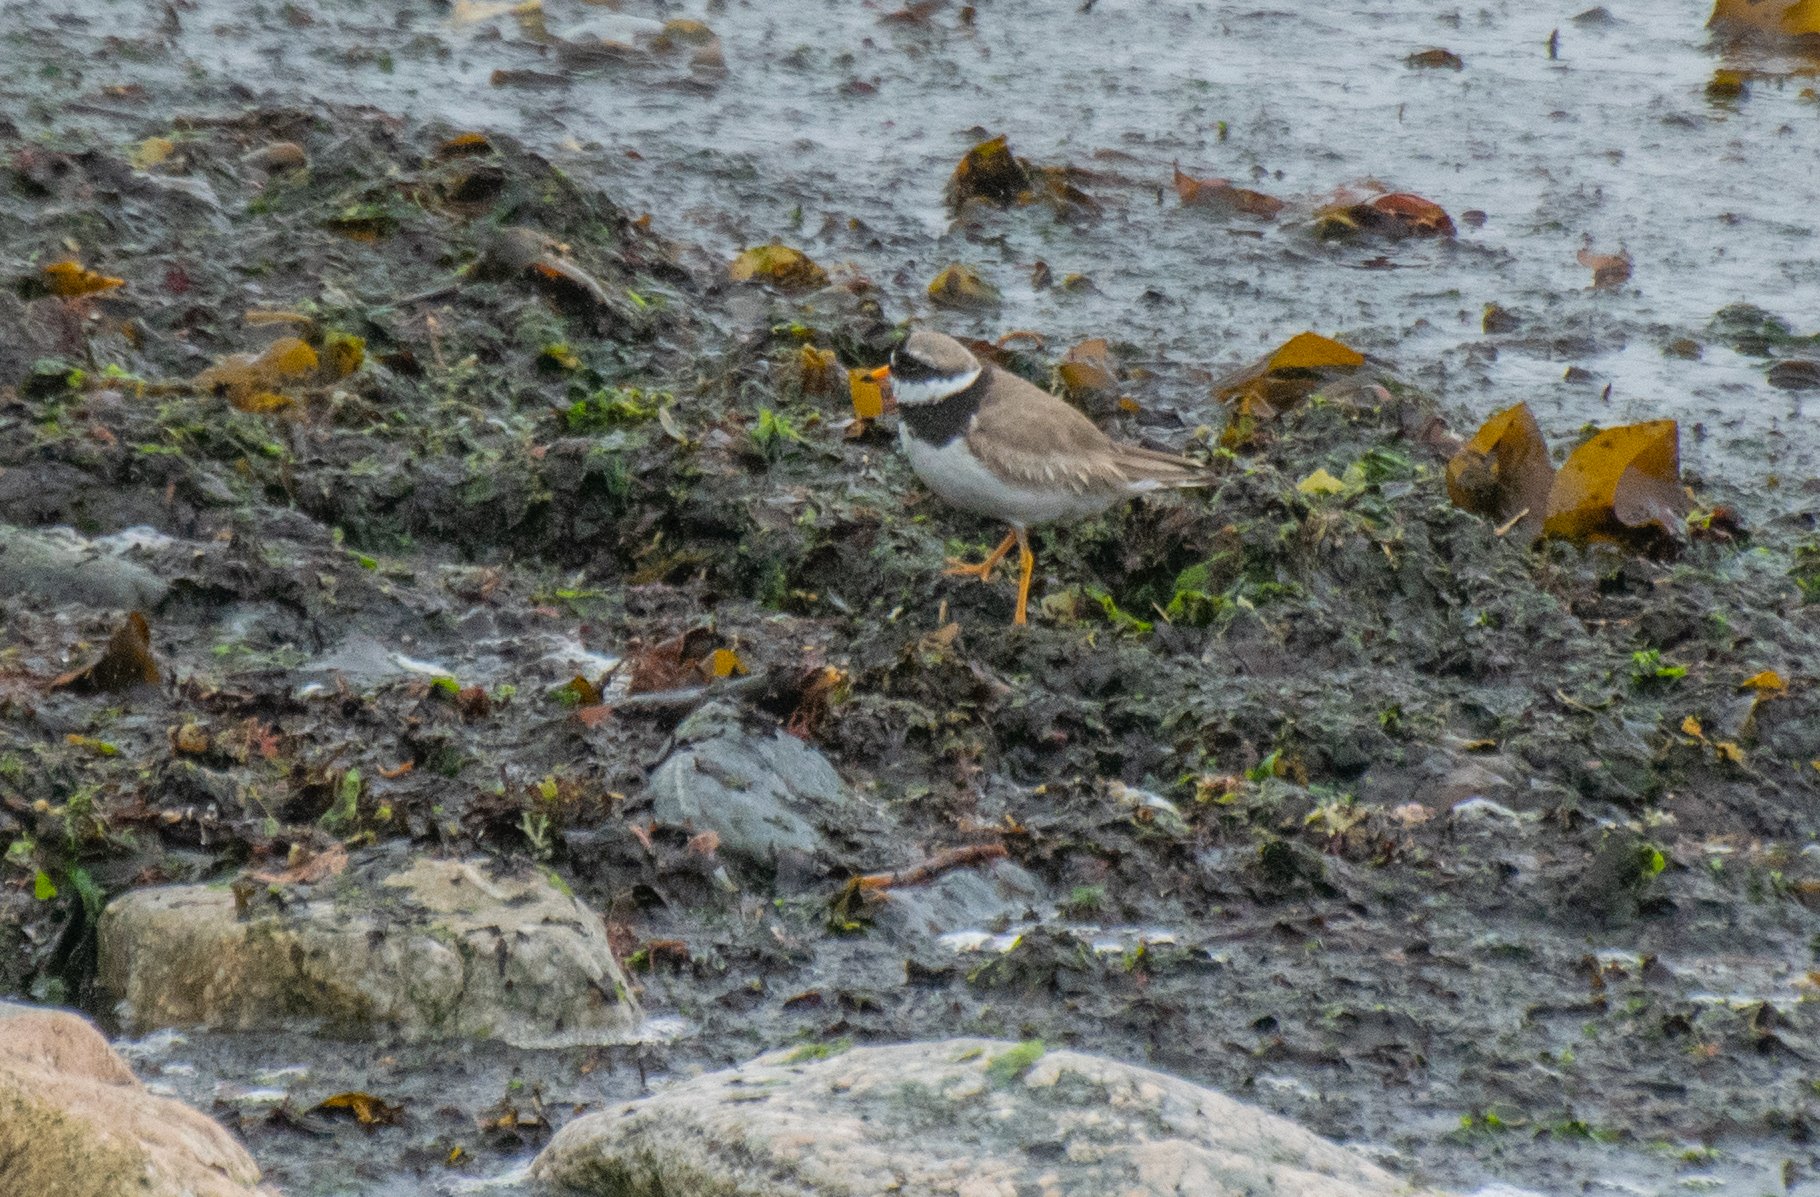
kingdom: Animalia
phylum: Chordata
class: Aves
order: Charadriiformes
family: Charadriidae
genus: Charadrius
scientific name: Charadrius hiaticula
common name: Common ringed plover
